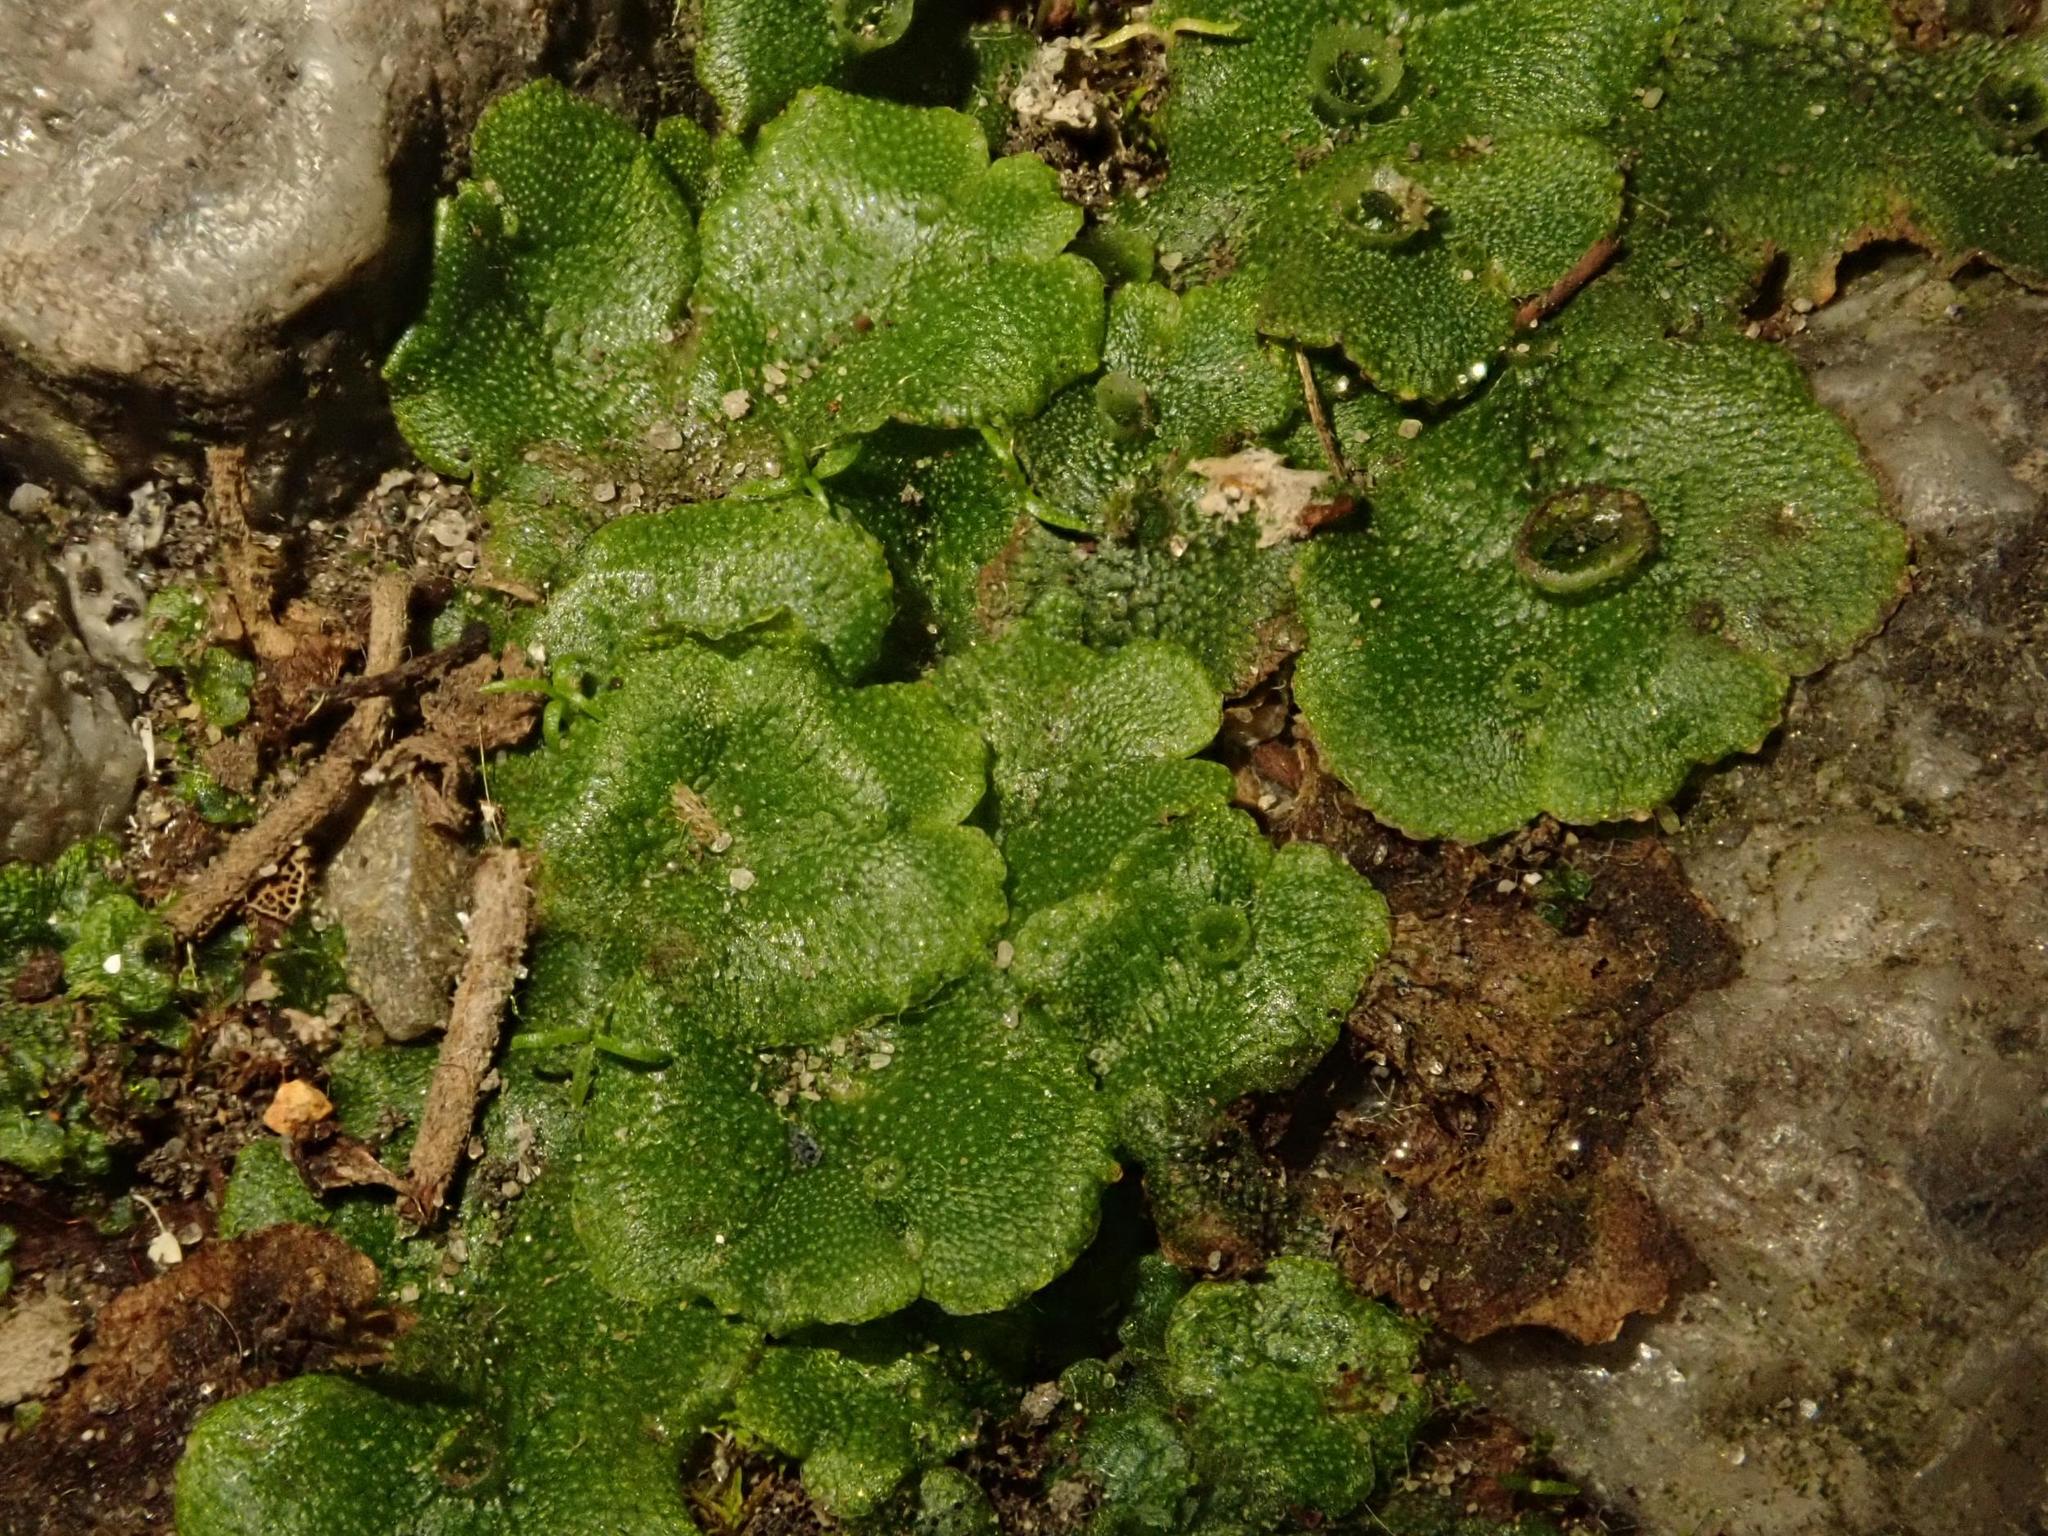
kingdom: Plantae
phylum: Marchantiophyta
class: Marchantiopsida
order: Marchantiales
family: Marchantiaceae
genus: Marchantia
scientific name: Marchantia polymorpha
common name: Common liverwort
